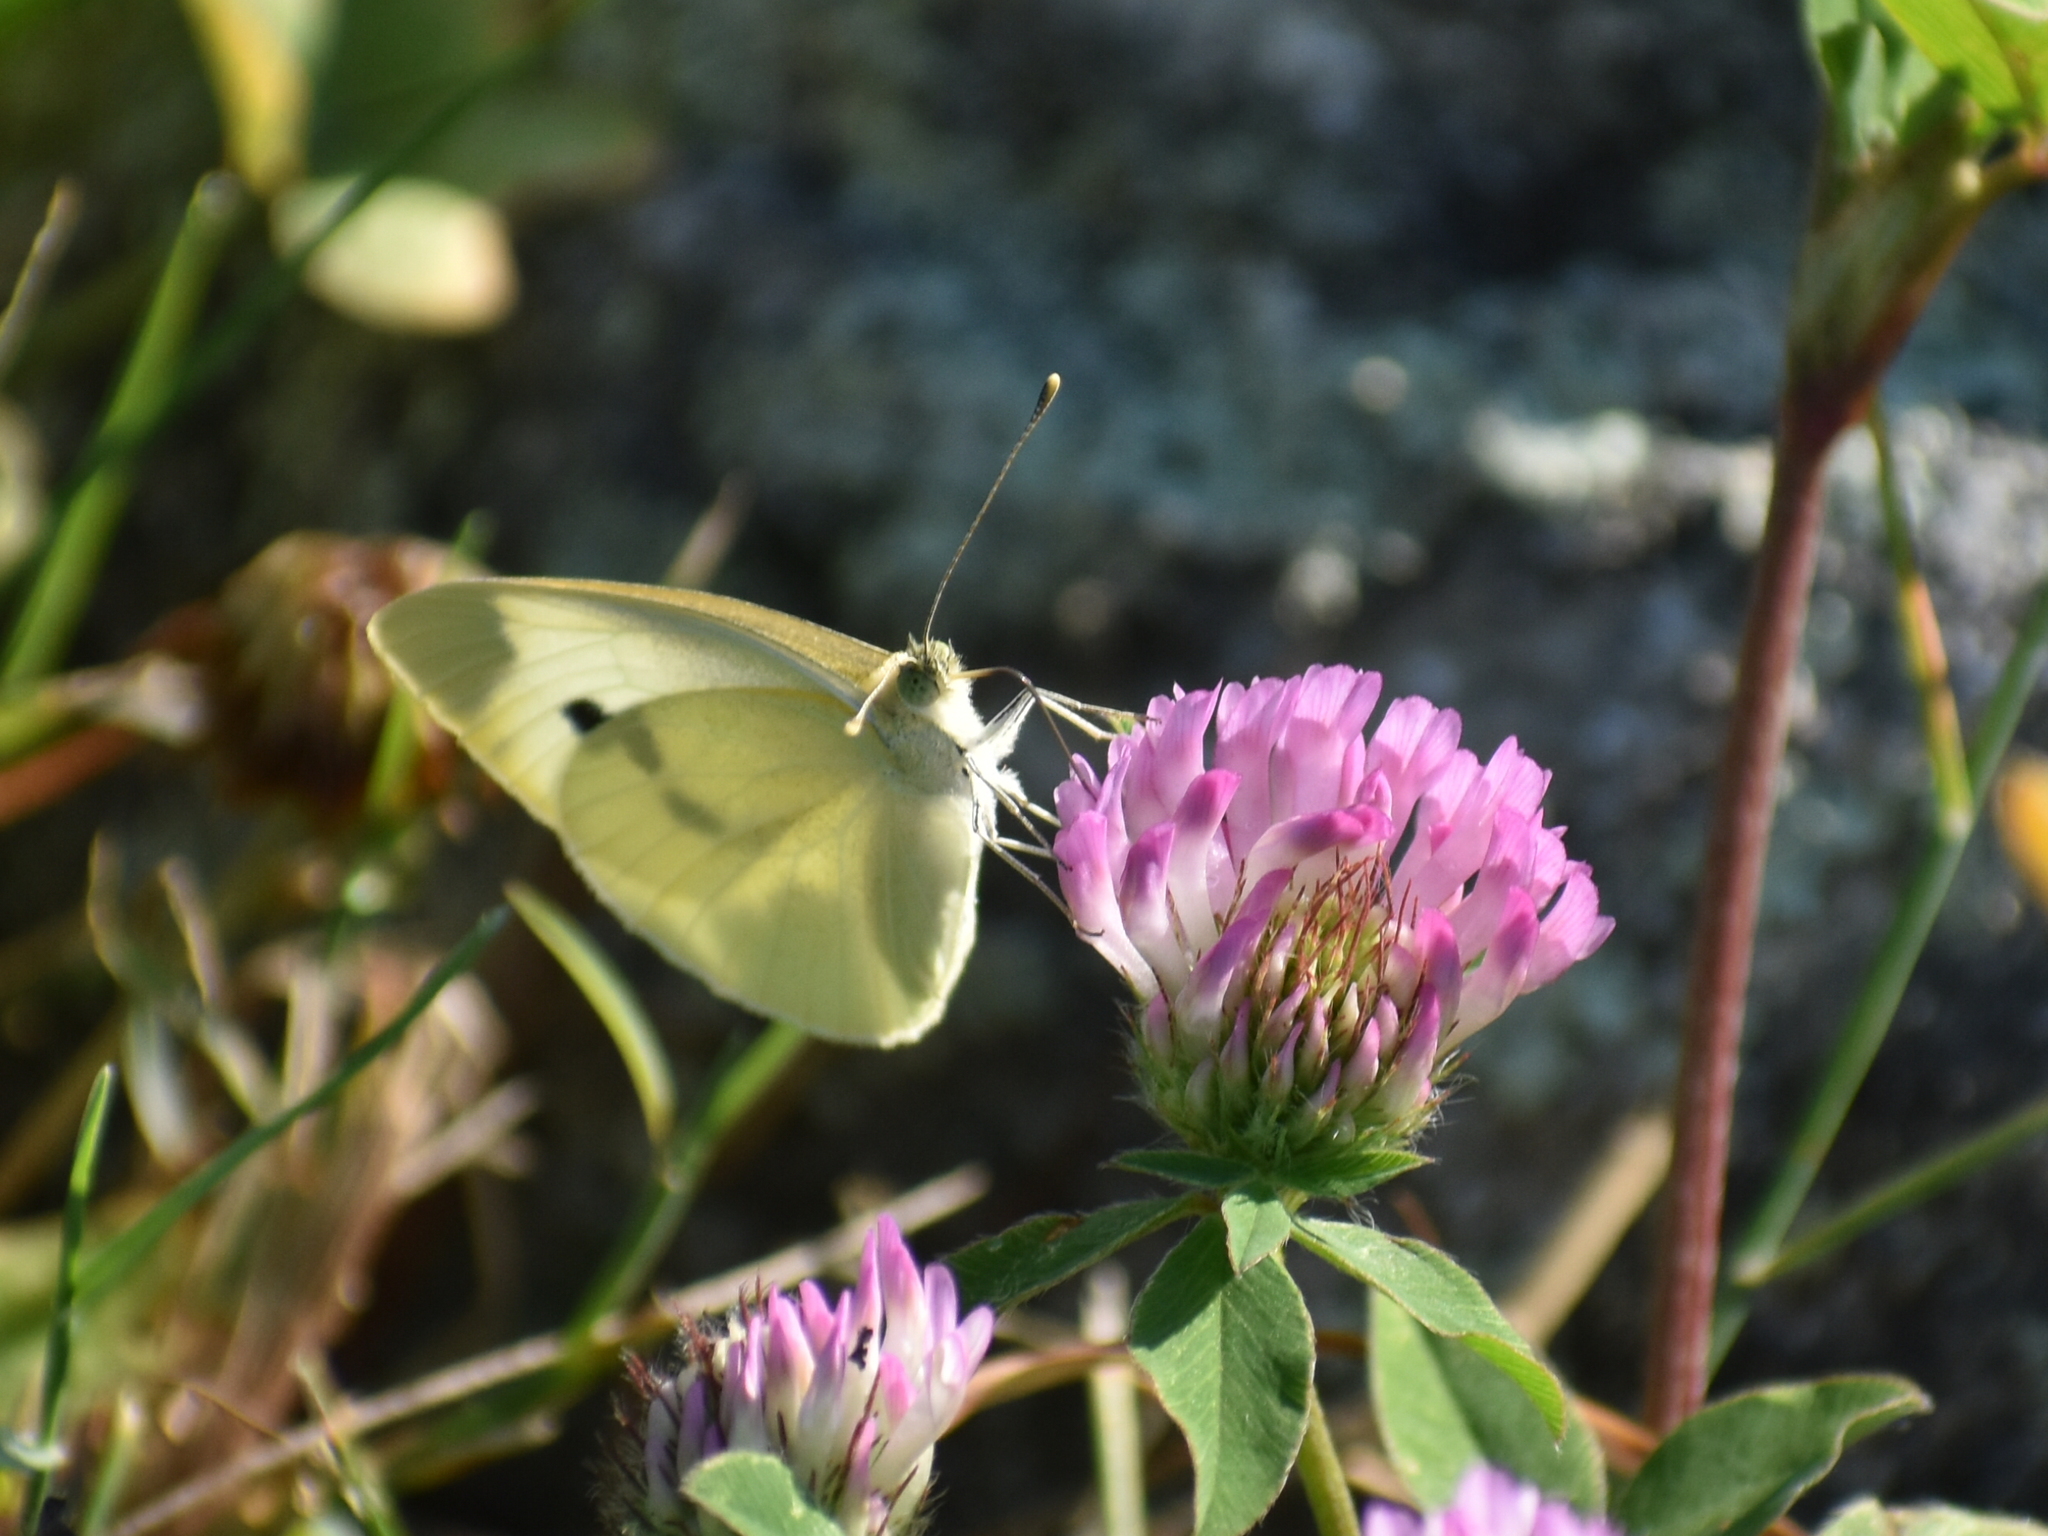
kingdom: Animalia
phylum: Arthropoda
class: Insecta
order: Lepidoptera
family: Pieridae
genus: Pieris
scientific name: Pieris rapae
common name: Small white
